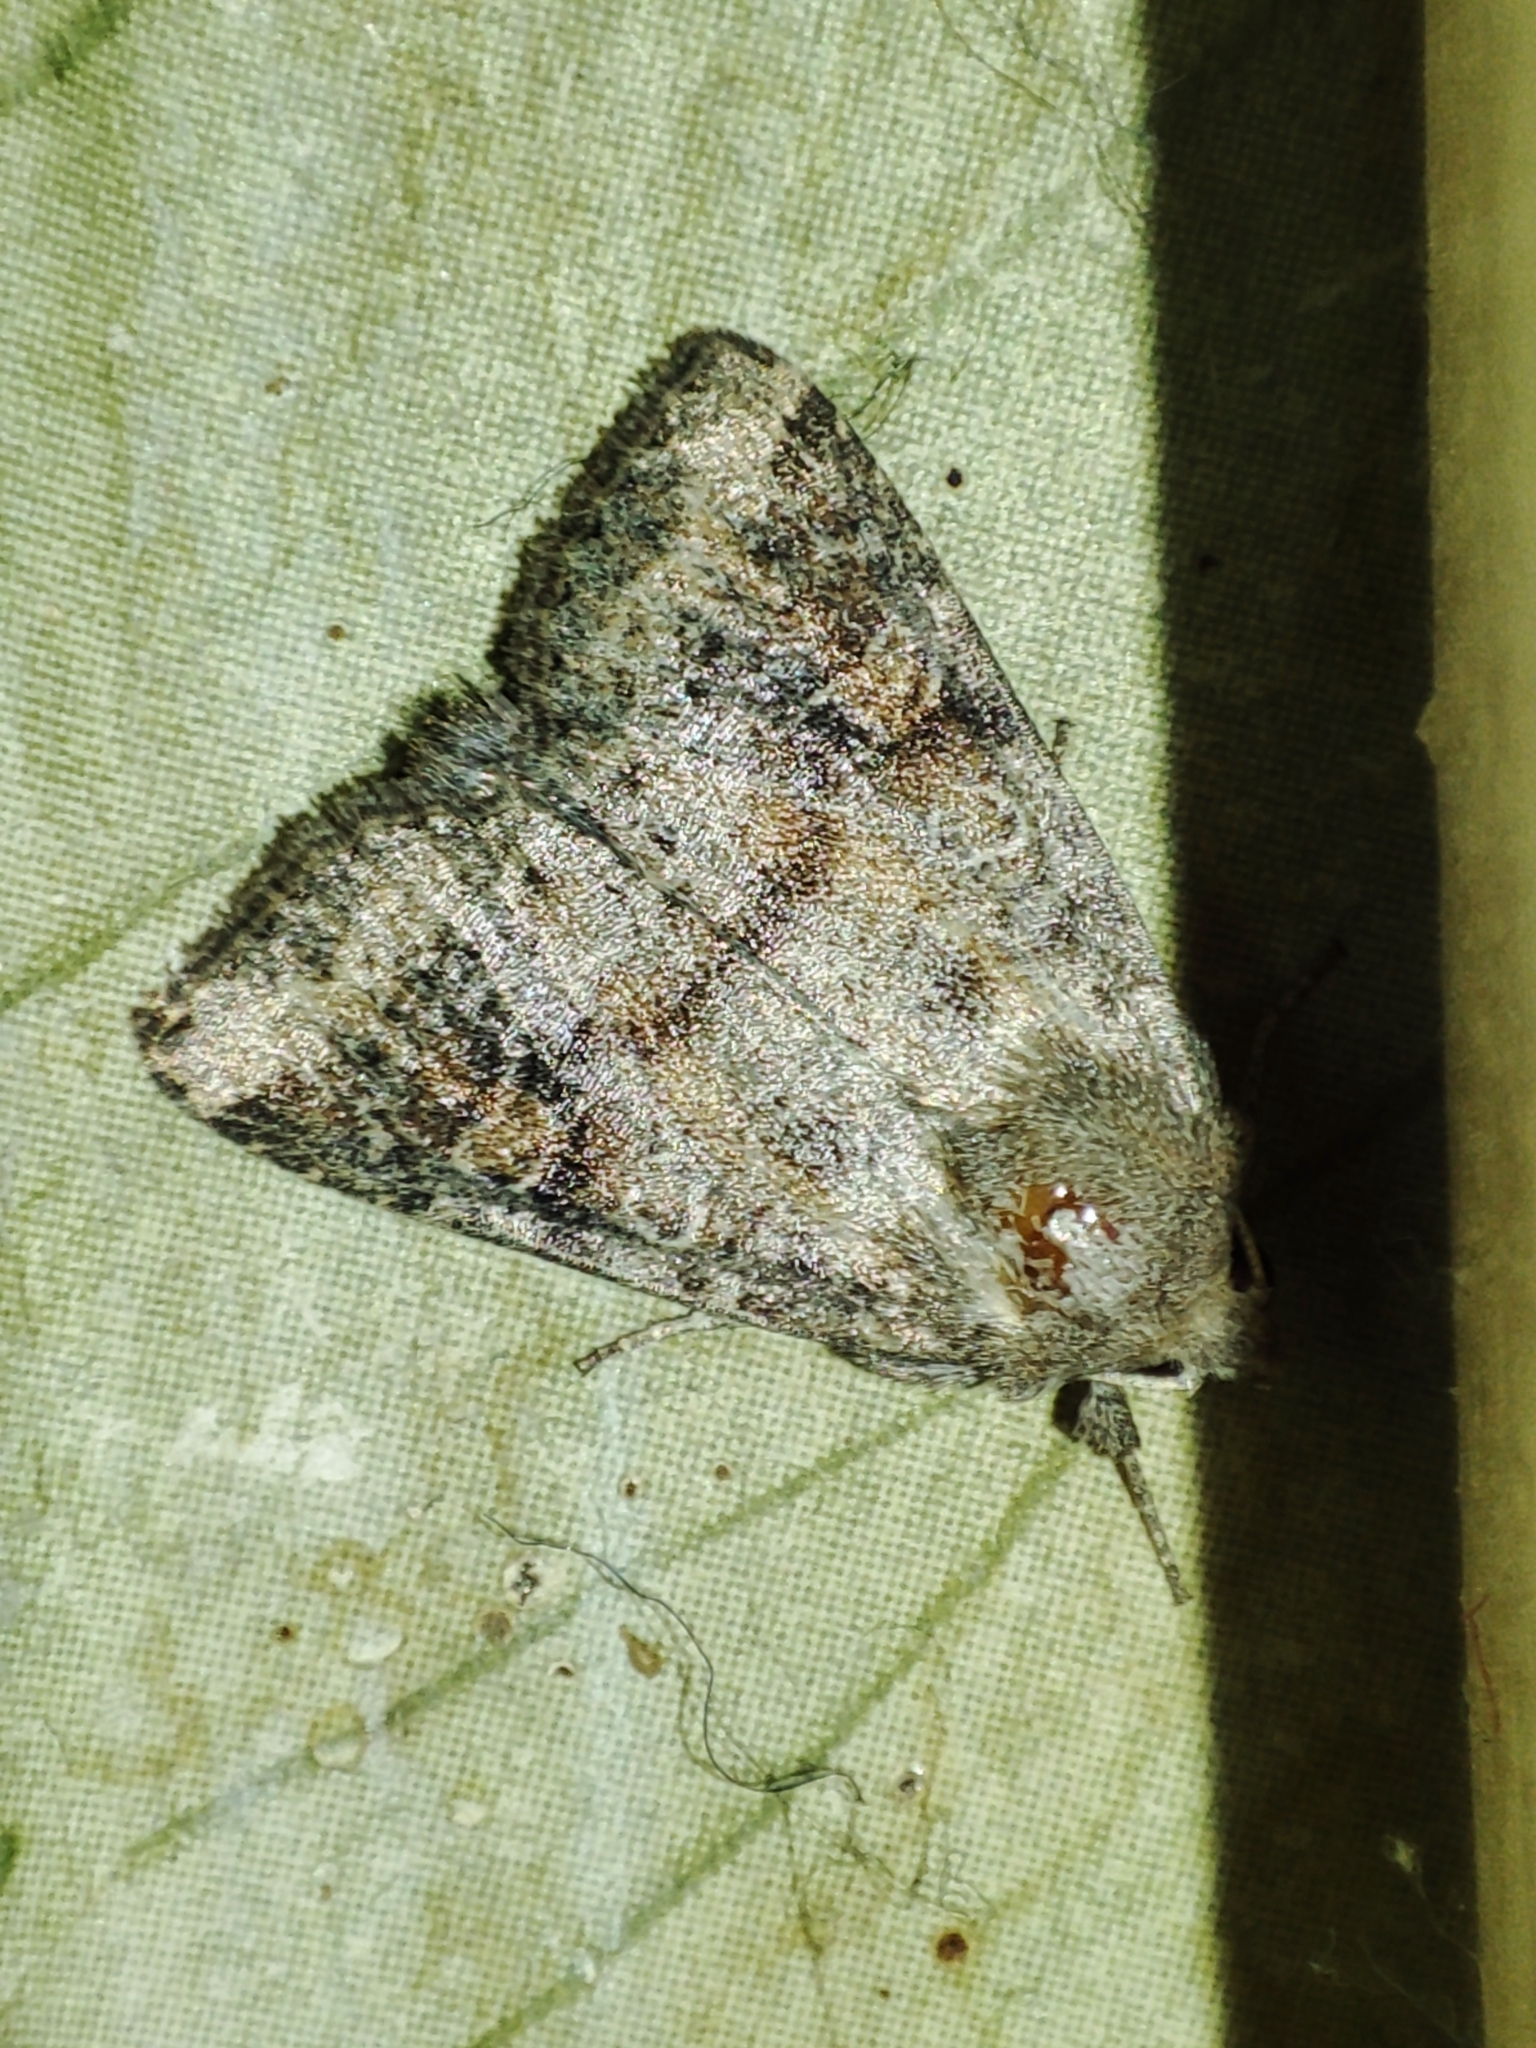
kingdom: Animalia
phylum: Arthropoda
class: Insecta
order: Lepidoptera
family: Noctuidae
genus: Parastichtis
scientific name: Parastichtis suspecta
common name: Suspected
